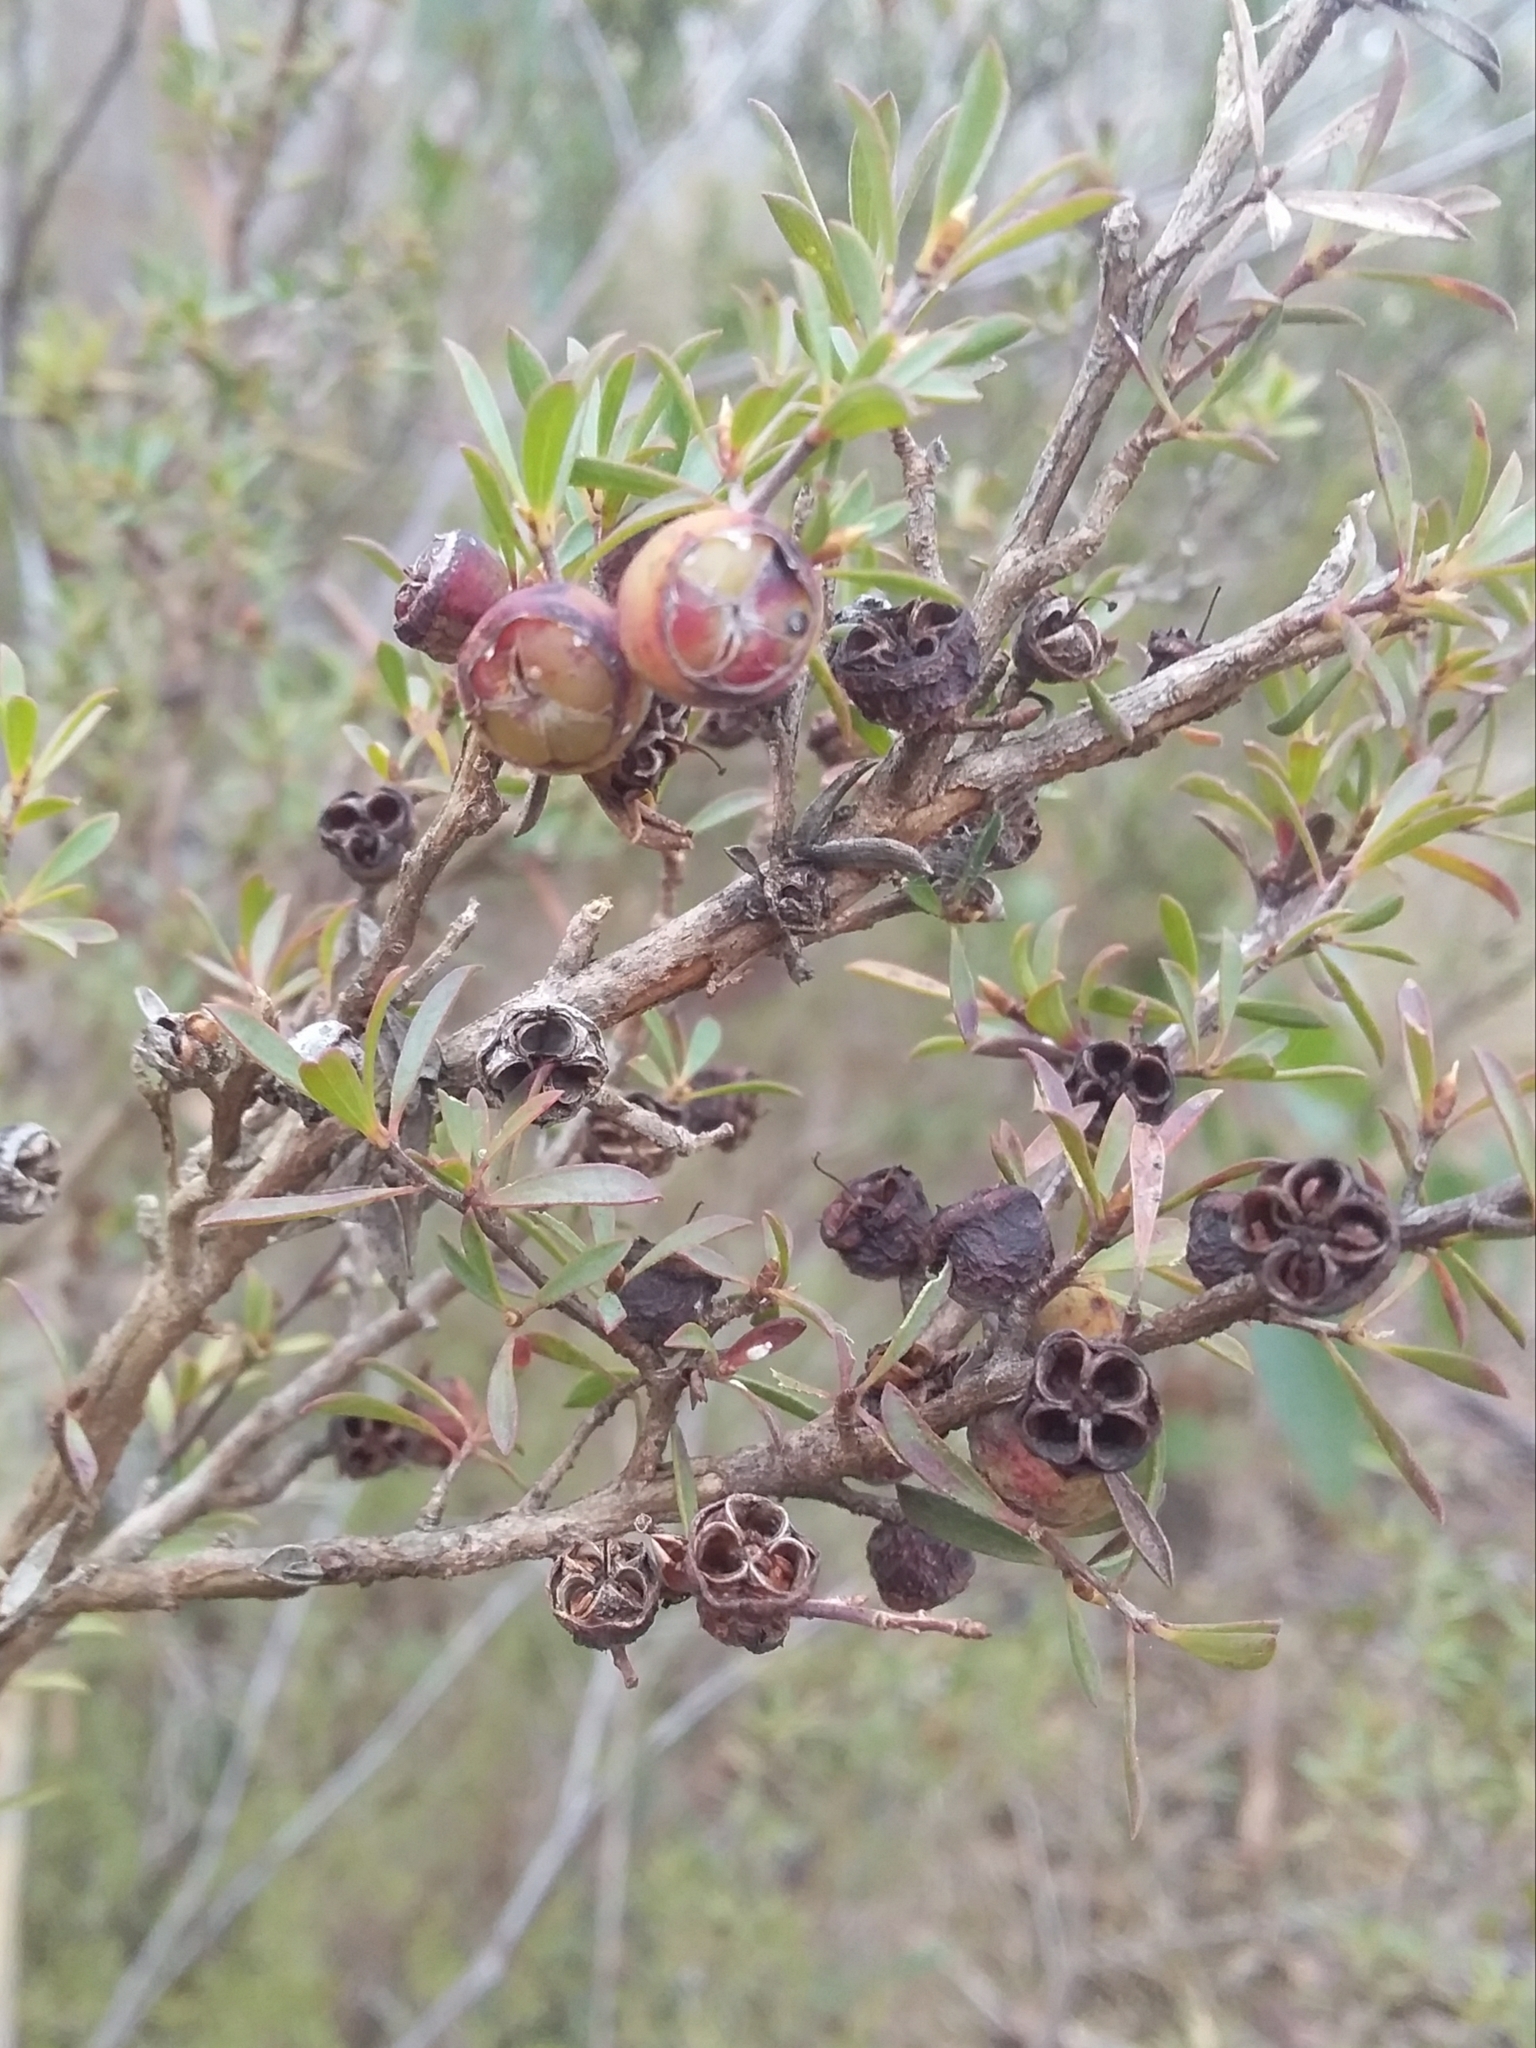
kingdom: Plantae
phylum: Tracheophyta
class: Magnoliopsida
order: Myrtales
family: Myrtaceae
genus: Leptospermum
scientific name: Leptospermum myrsinoides
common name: Heath teatree
